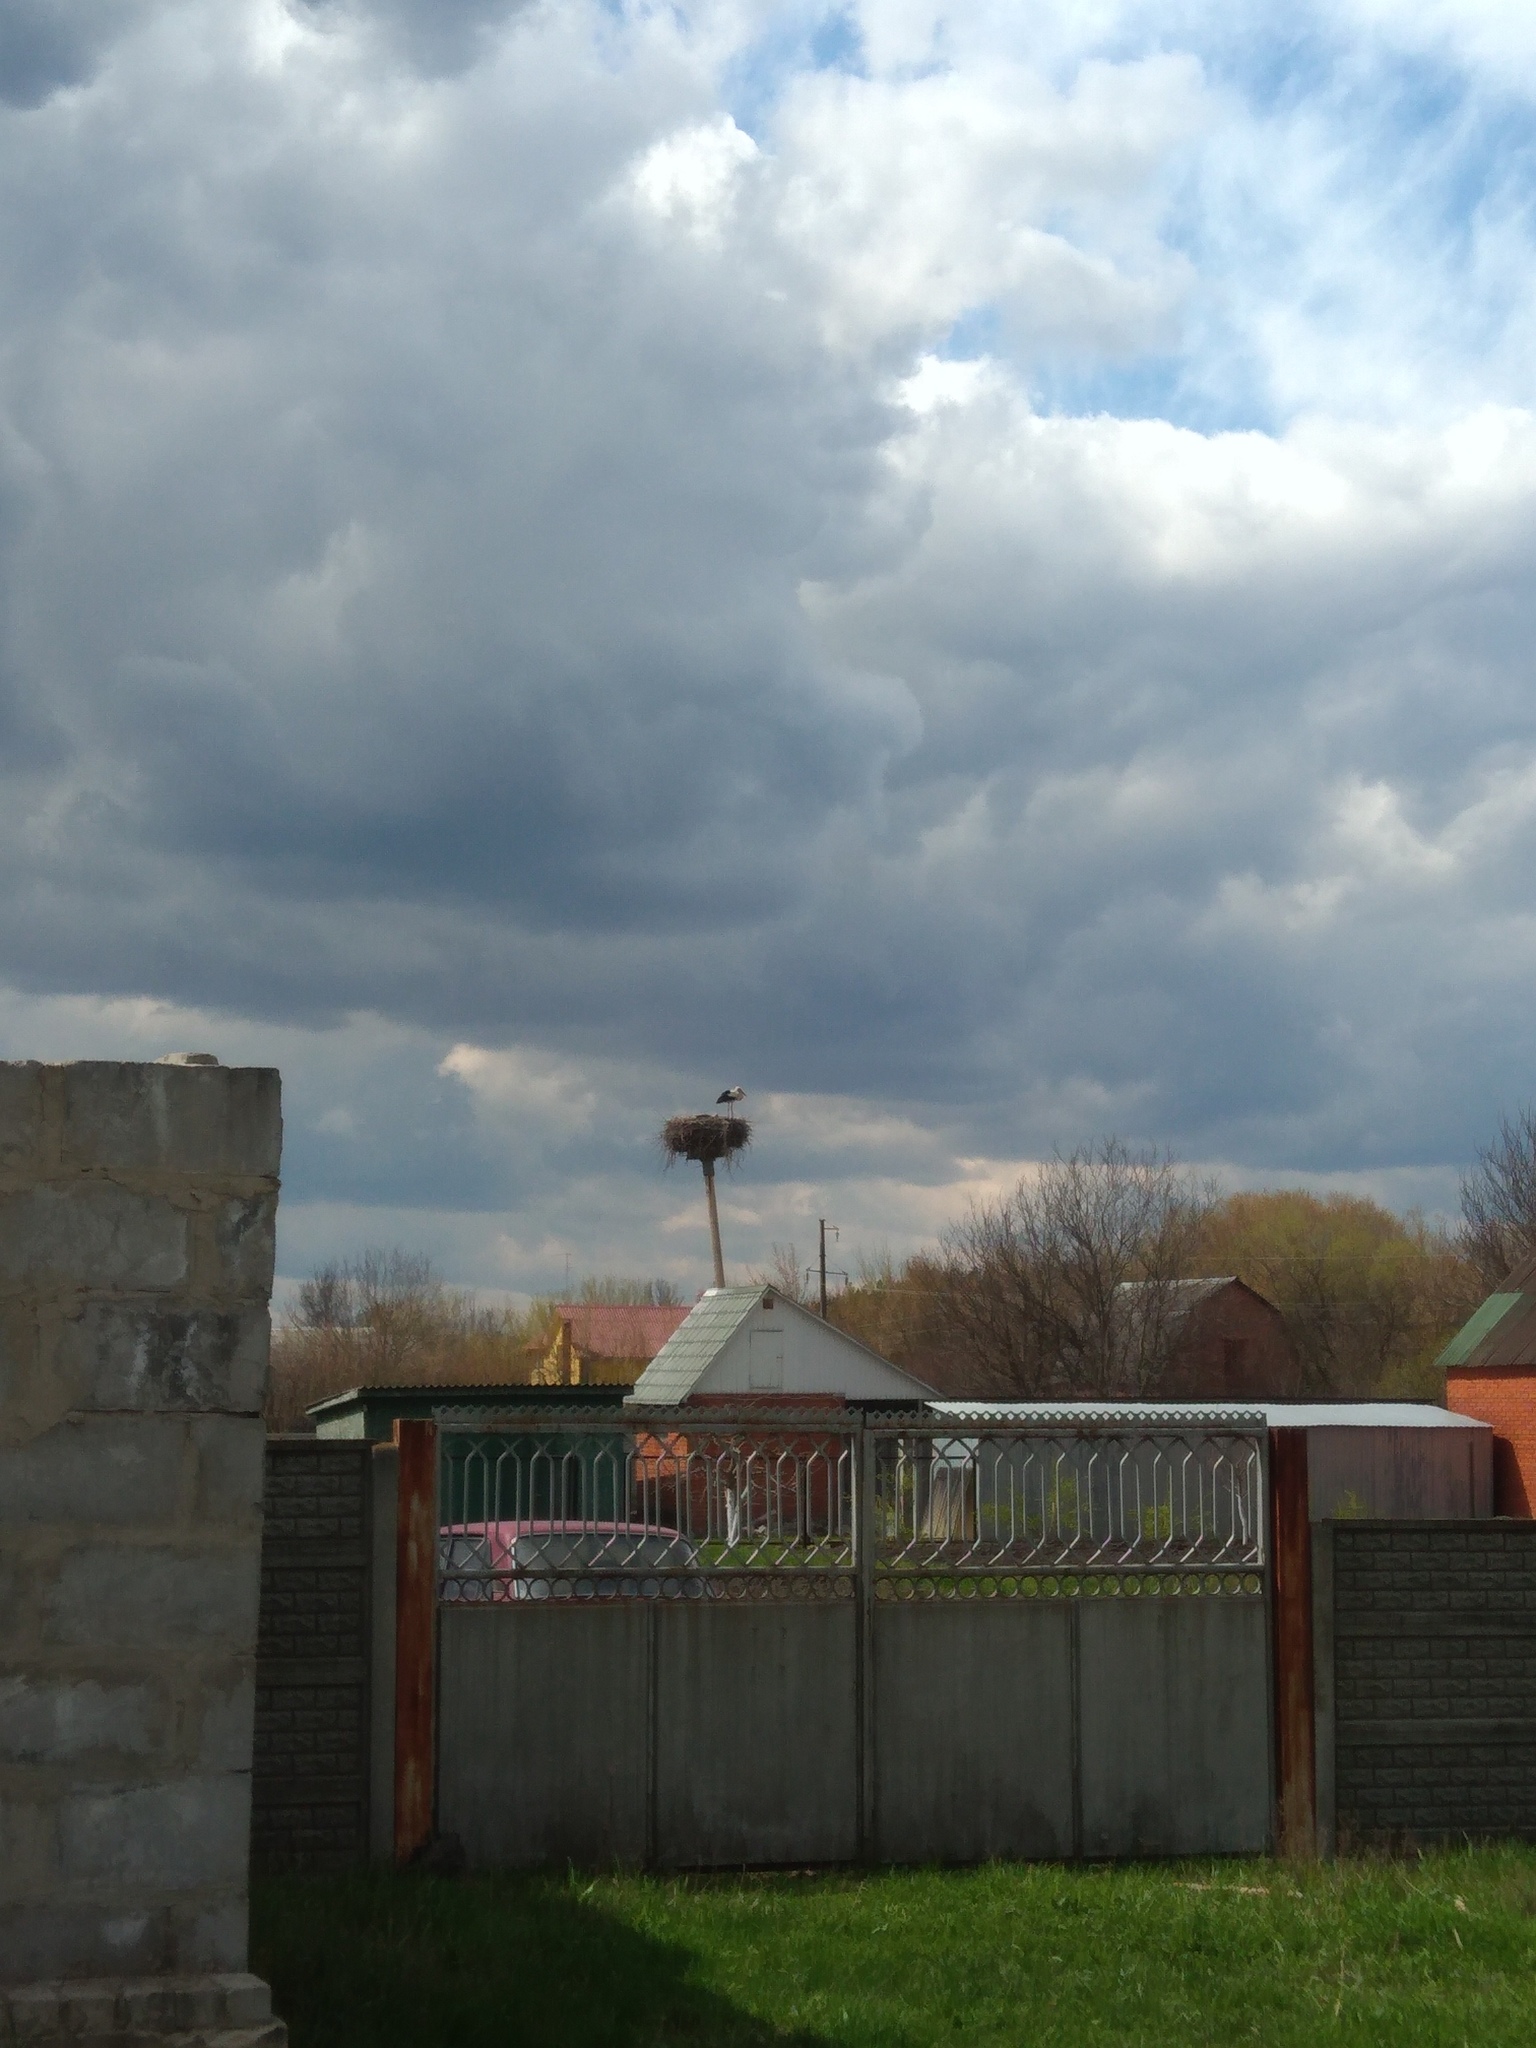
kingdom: Animalia
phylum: Chordata
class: Aves
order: Ciconiiformes
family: Ciconiidae
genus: Ciconia
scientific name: Ciconia ciconia
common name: White stork
